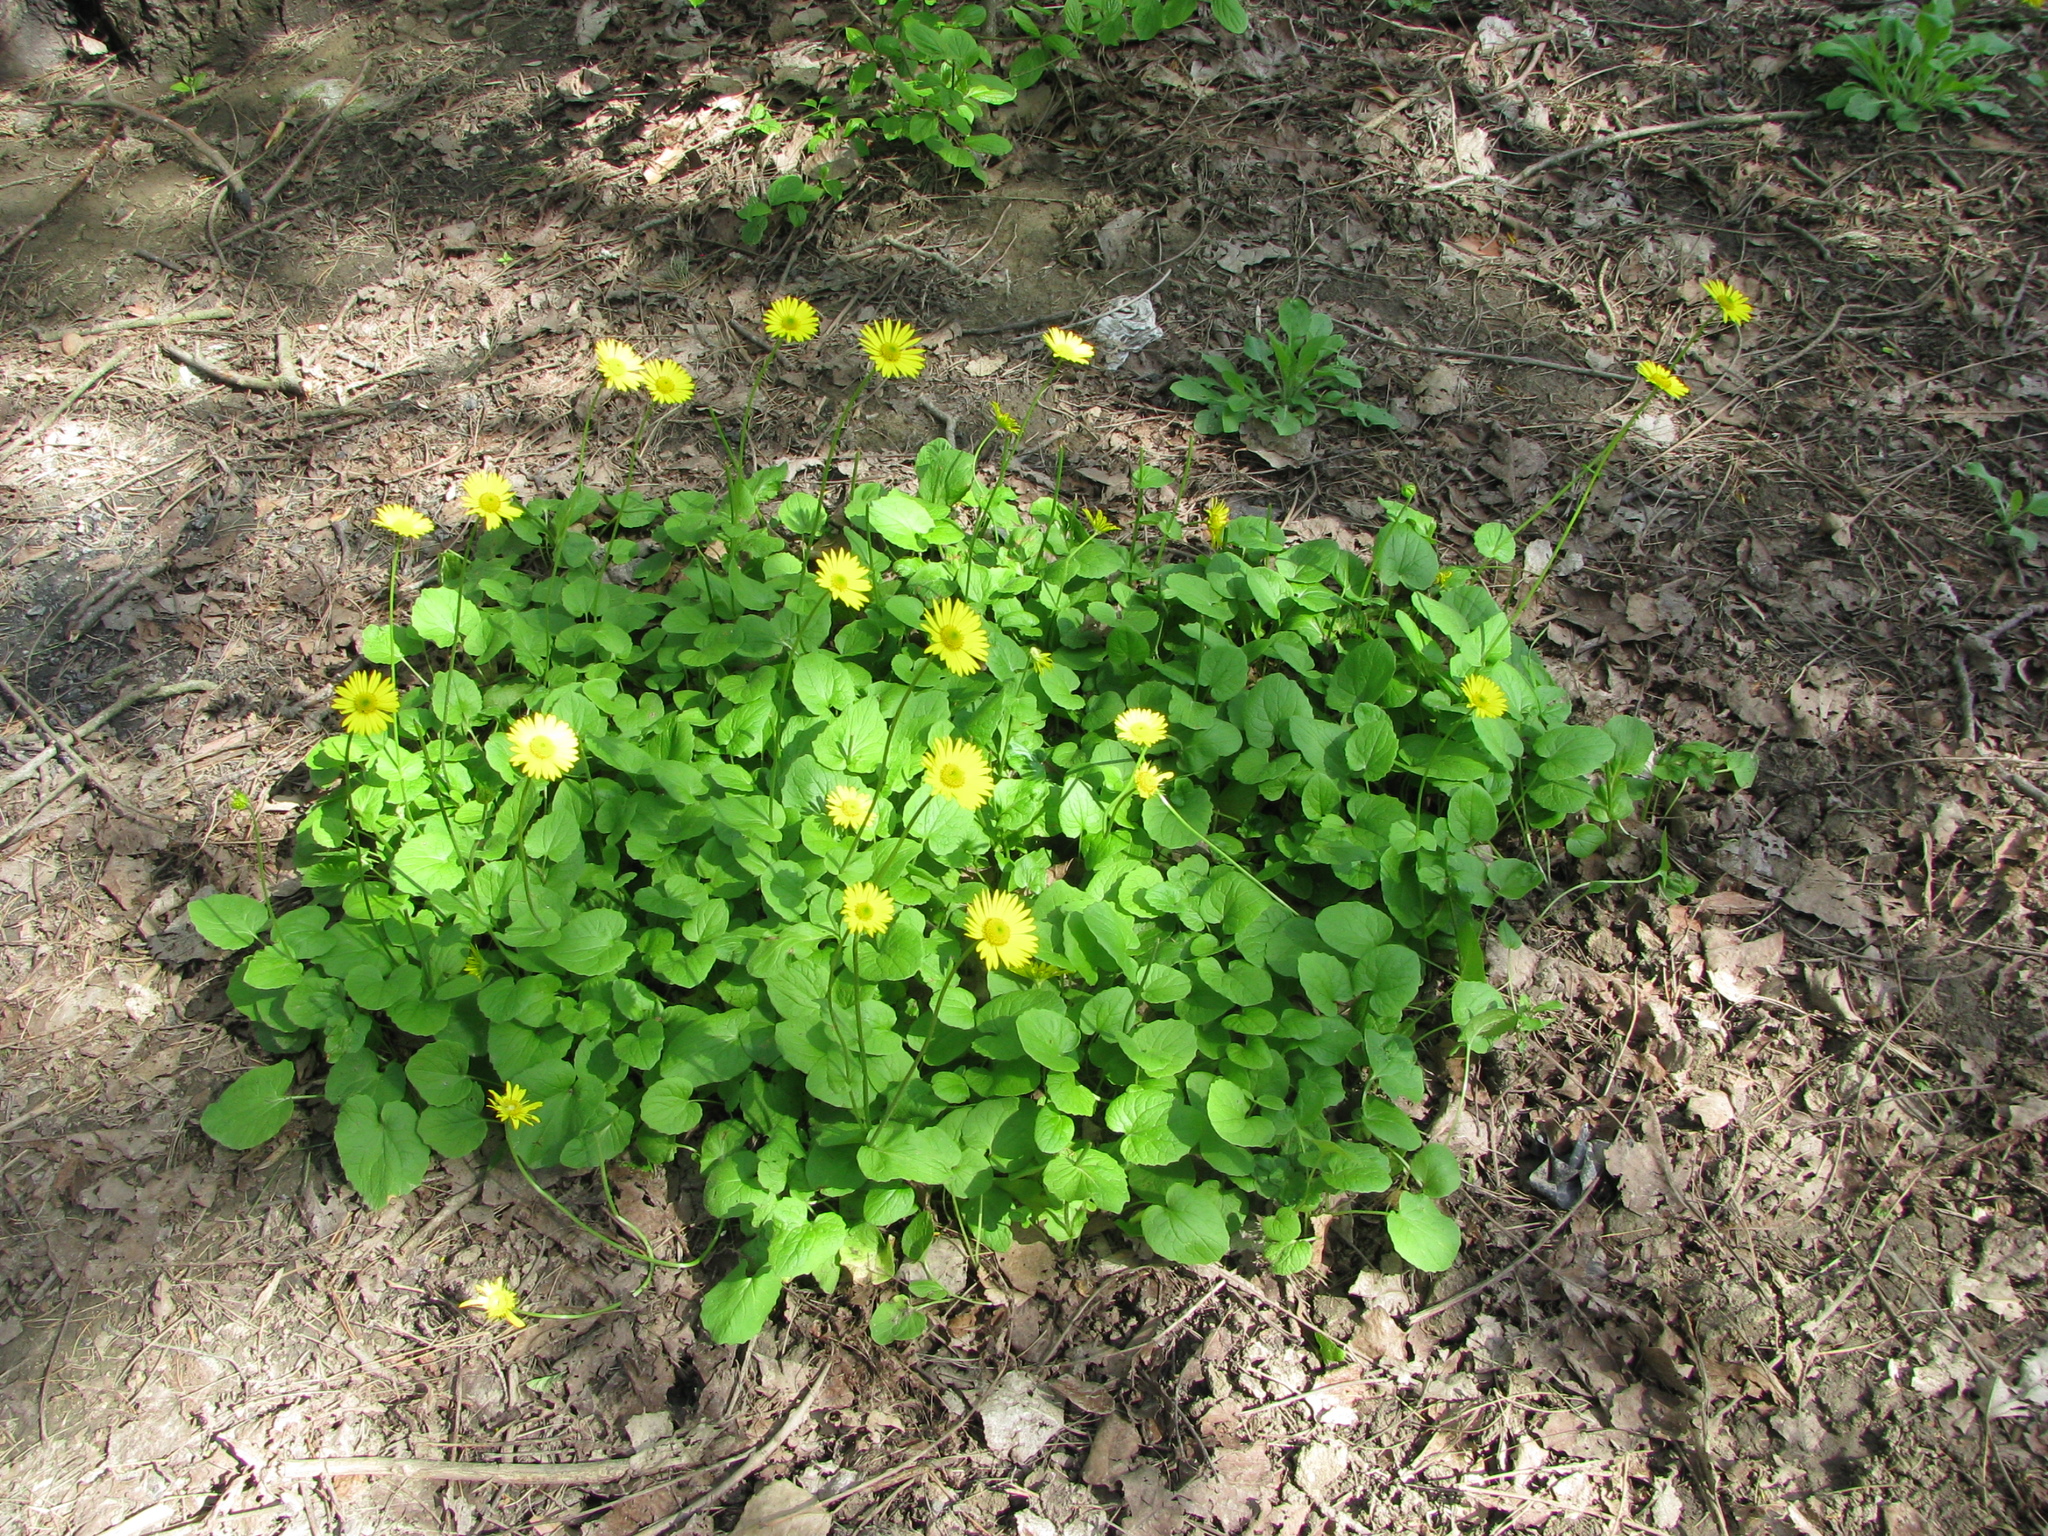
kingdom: Plantae
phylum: Tracheophyta
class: Magnoliopsida
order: Asterales
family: Asteraceae
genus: Doronicum
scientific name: Doronicum
